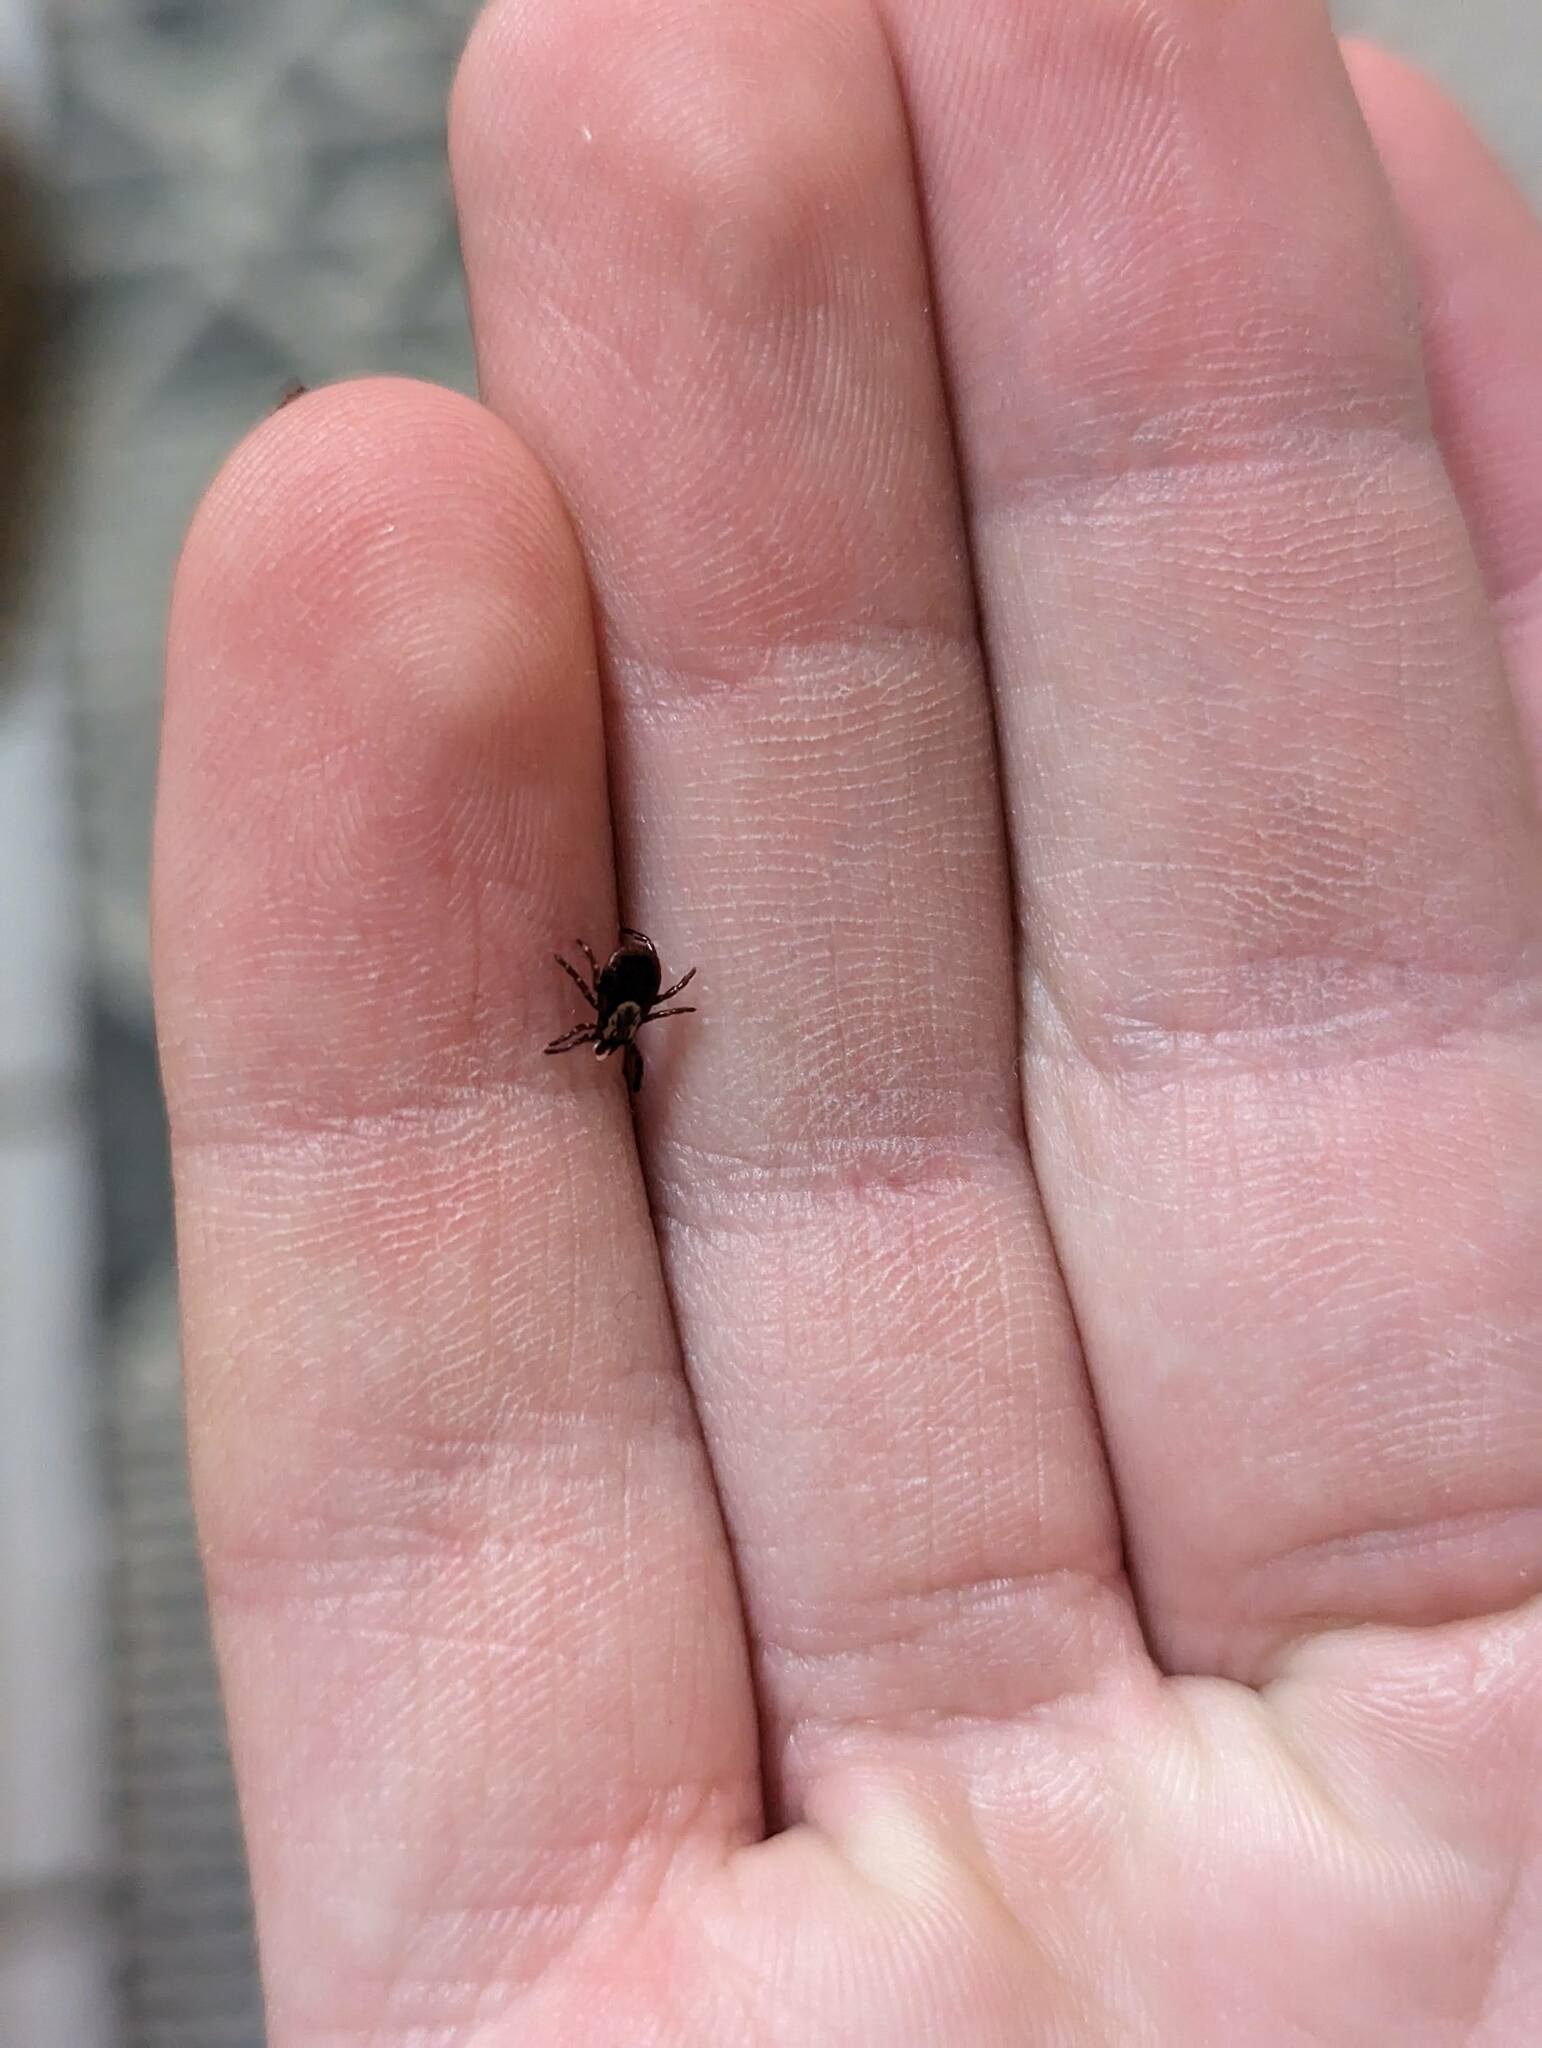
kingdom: Animalia
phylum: Arthropoda
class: Arachnida
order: Ixodida
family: Ixodidae
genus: Dermacentor
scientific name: Dermacentor variabilis
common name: American dog tick
